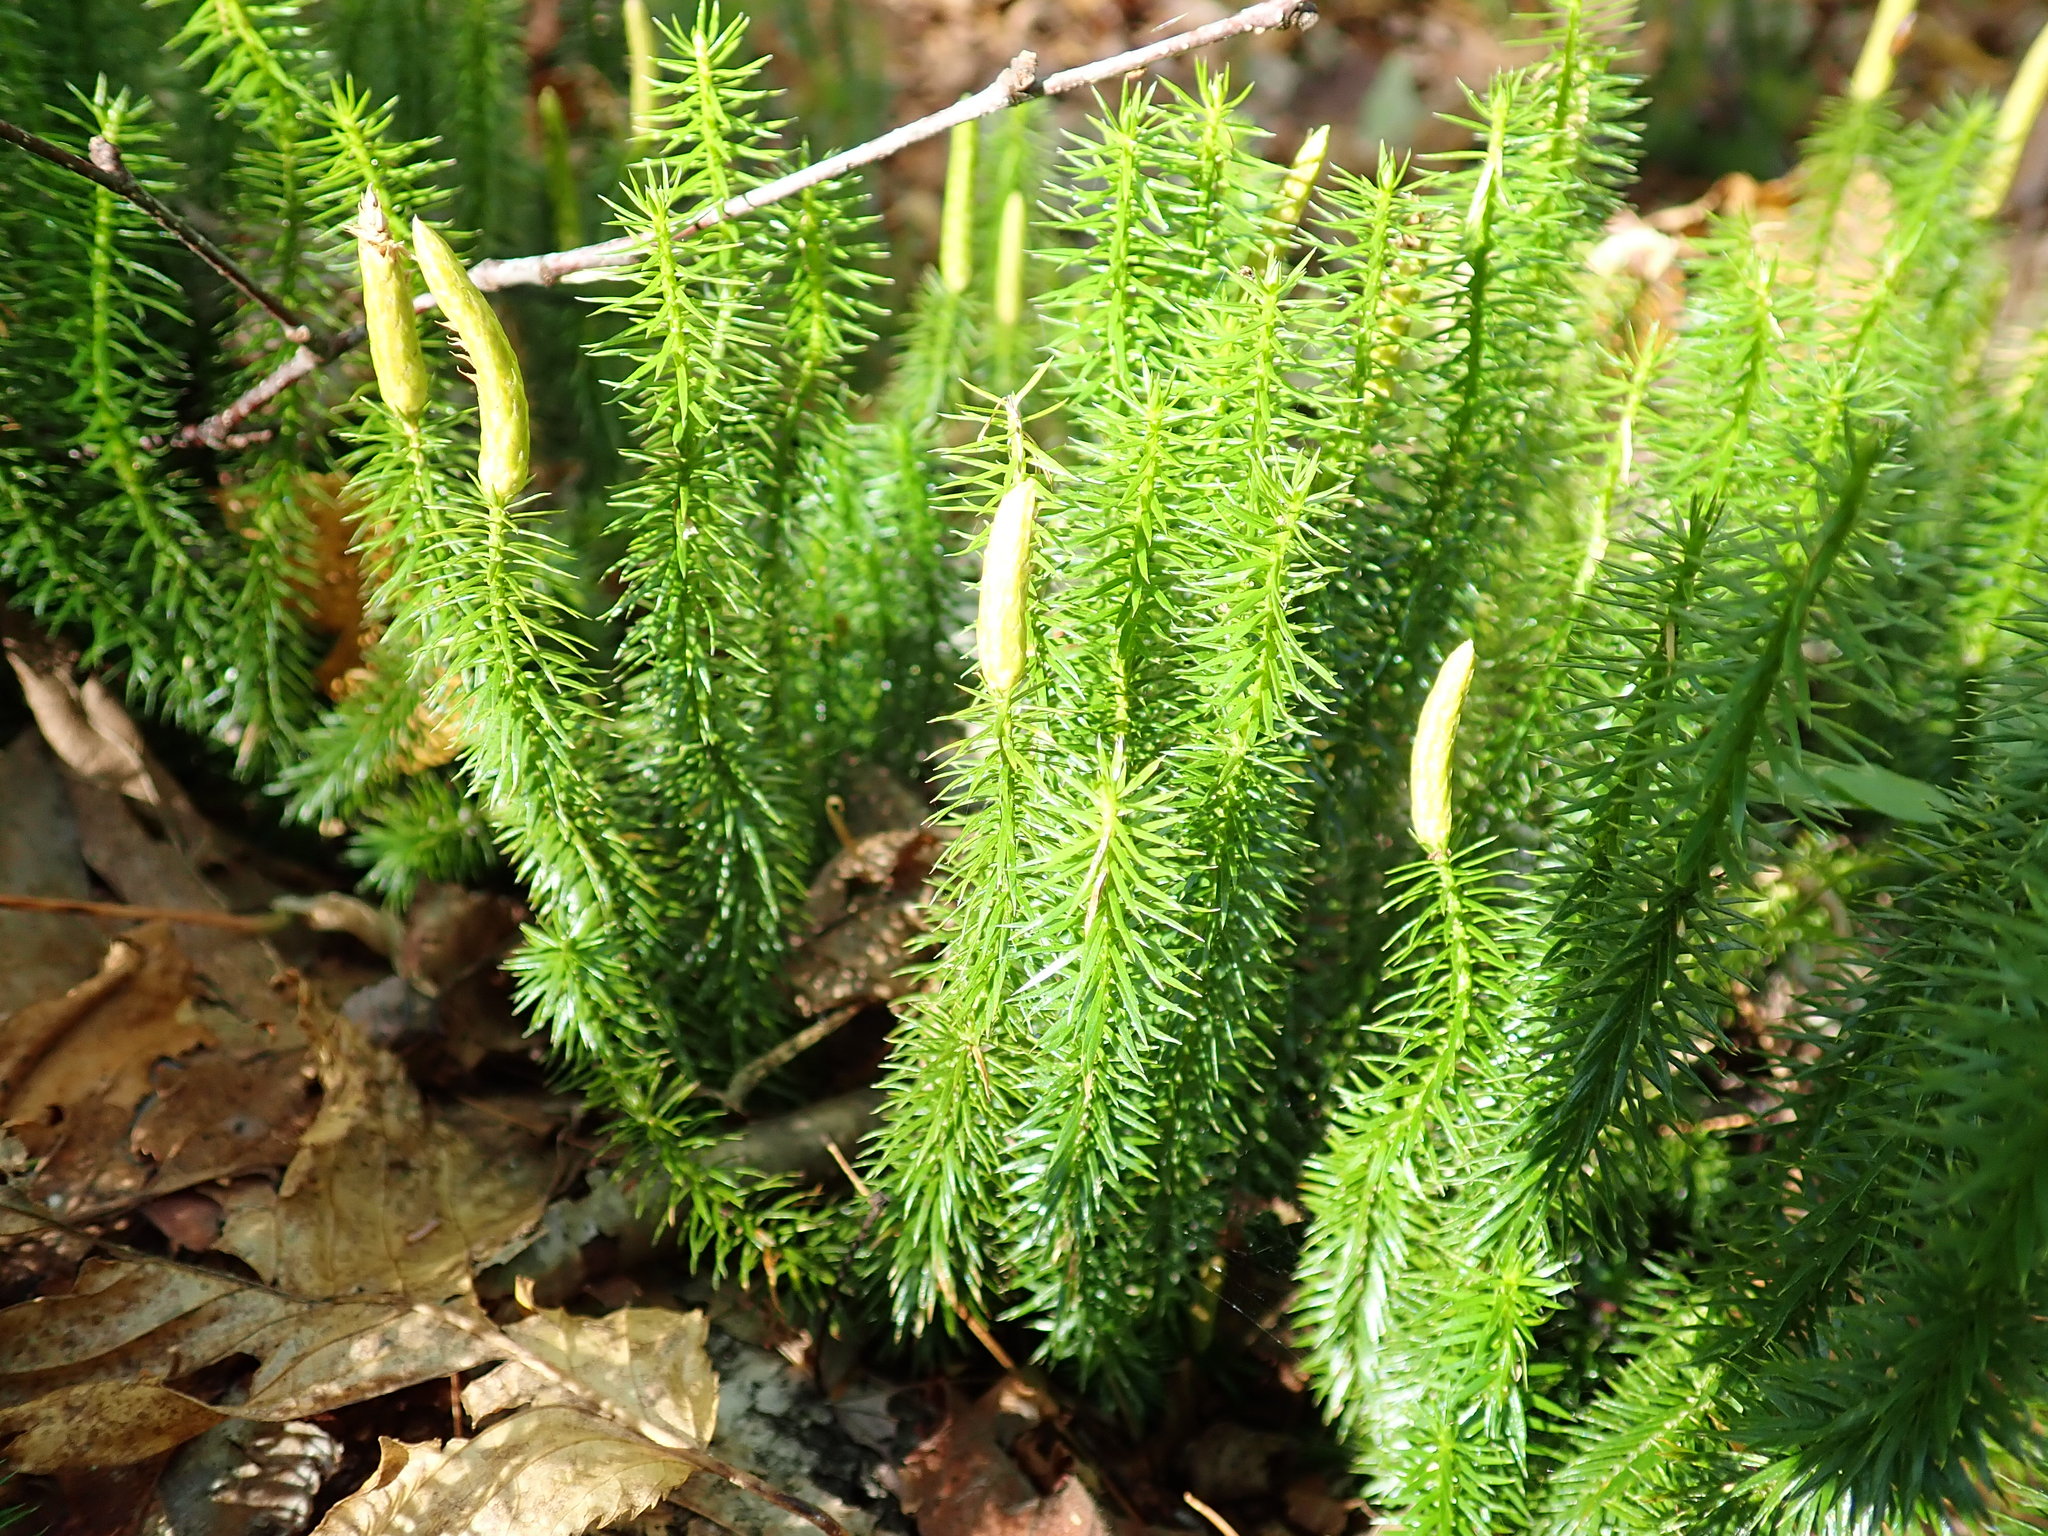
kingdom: Plantae
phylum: Tracheophyta
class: Lycopodiopsida
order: Lycopodiales
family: Lycopodiaceae
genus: Spinulum
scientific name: Spinulum annotinum
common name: Interrupted club-moss
